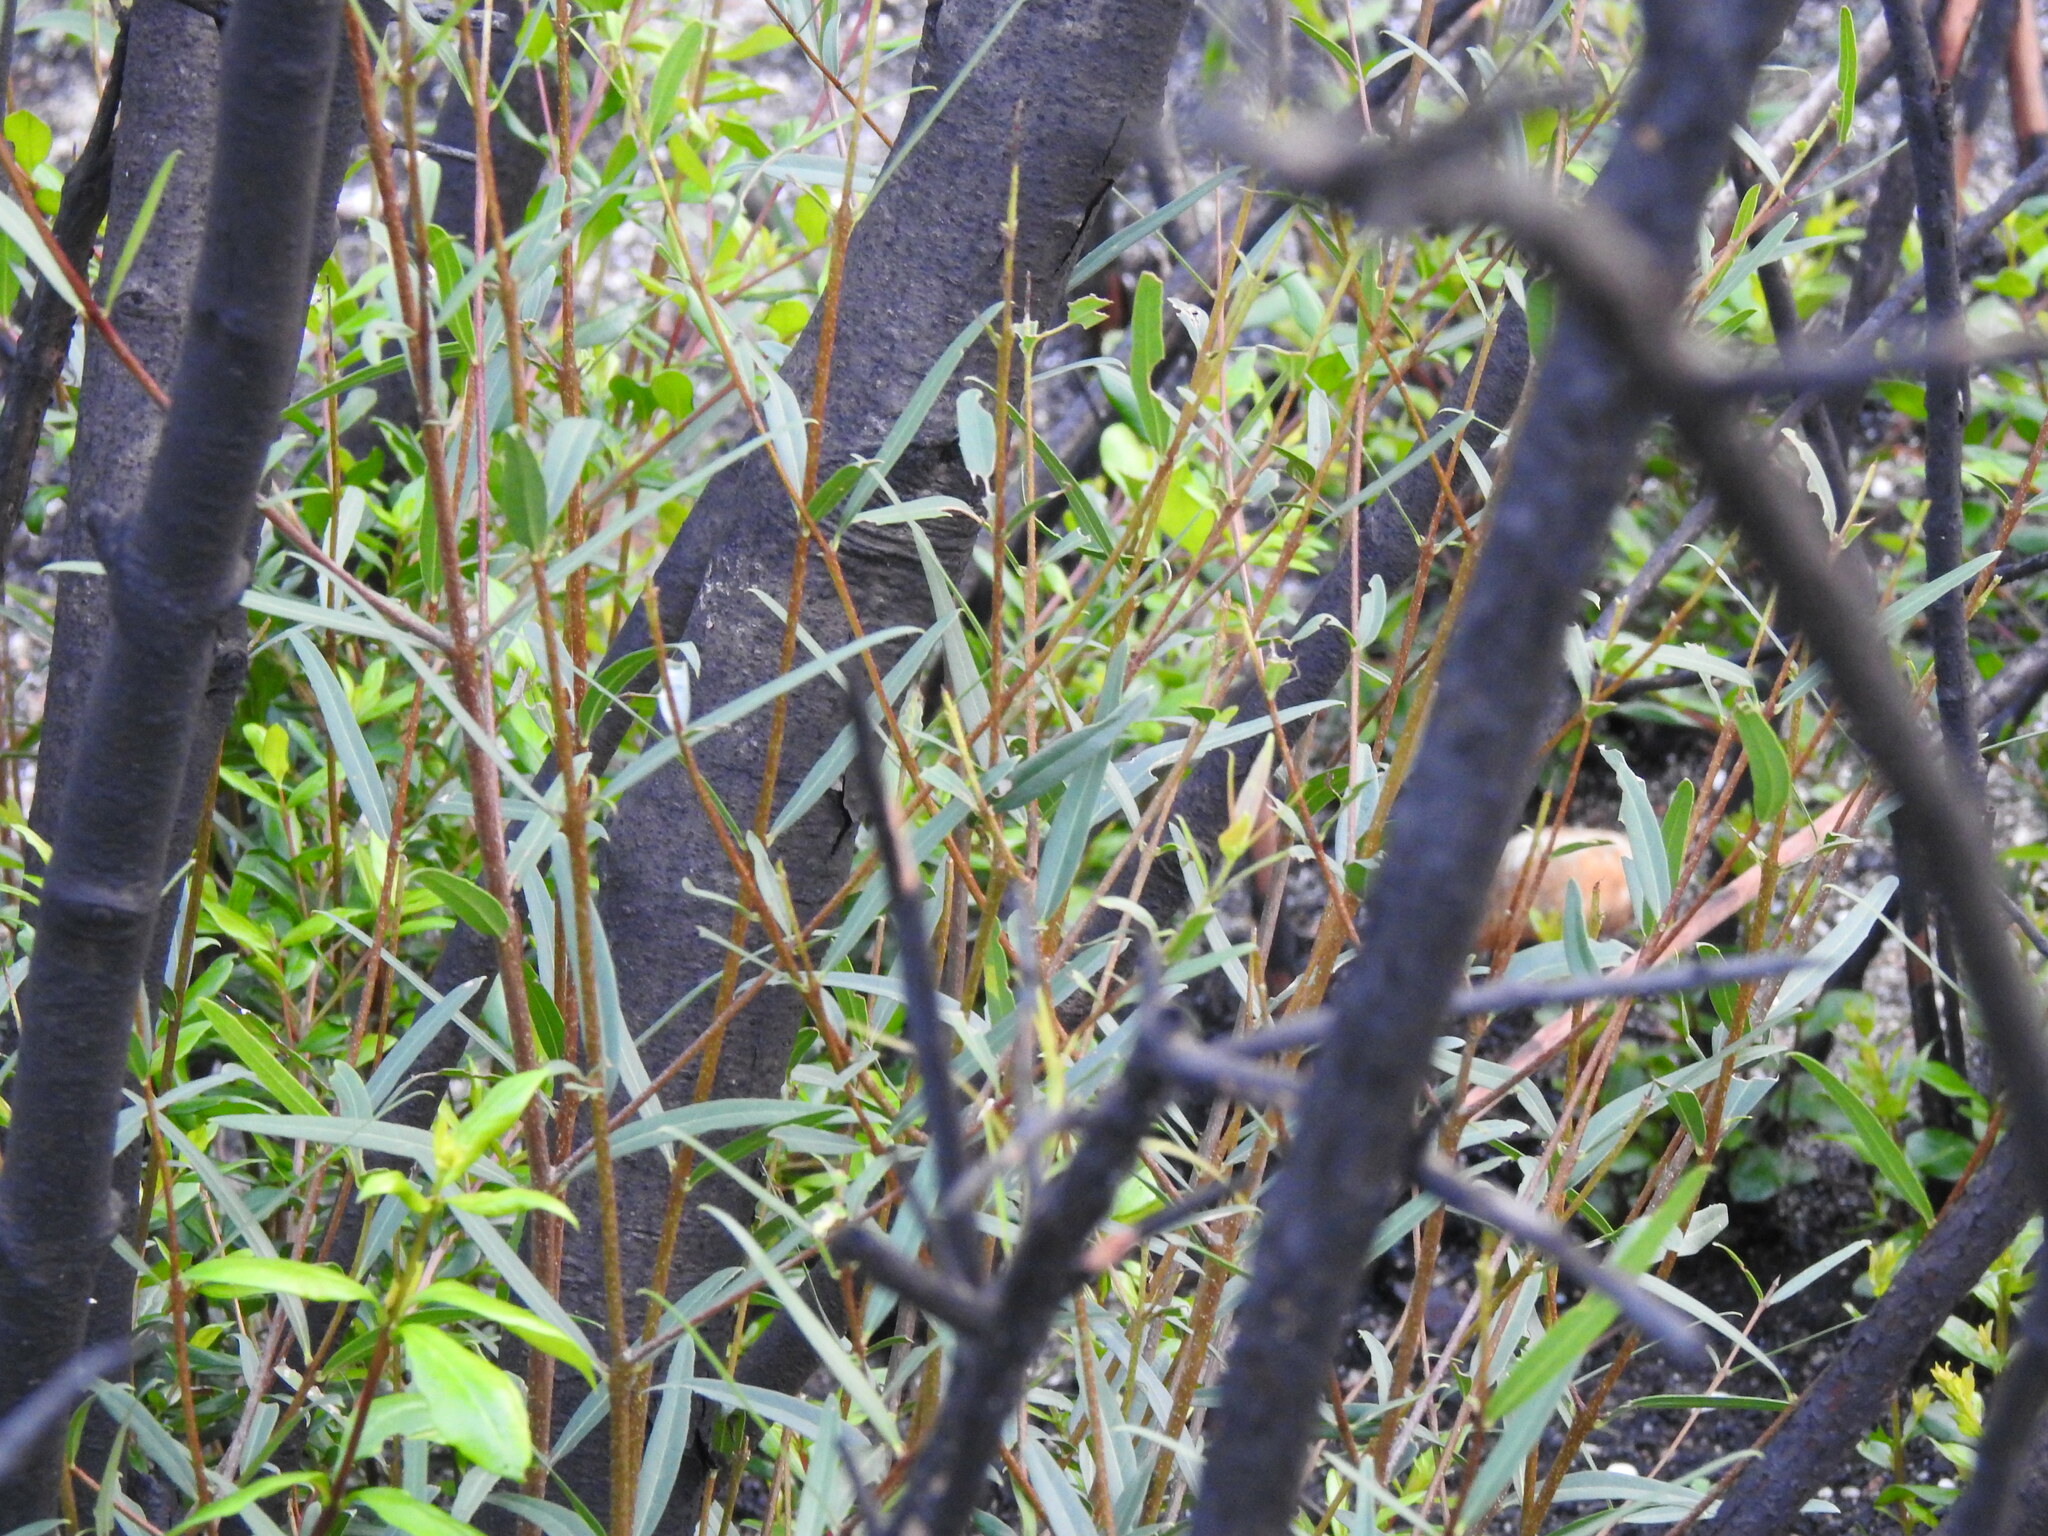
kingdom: Plantae
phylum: Tracheophyta
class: Magnoliopsida
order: Lamiales
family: Oleaceae
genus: Phillyrea
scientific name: Phillyrea angustifolia
